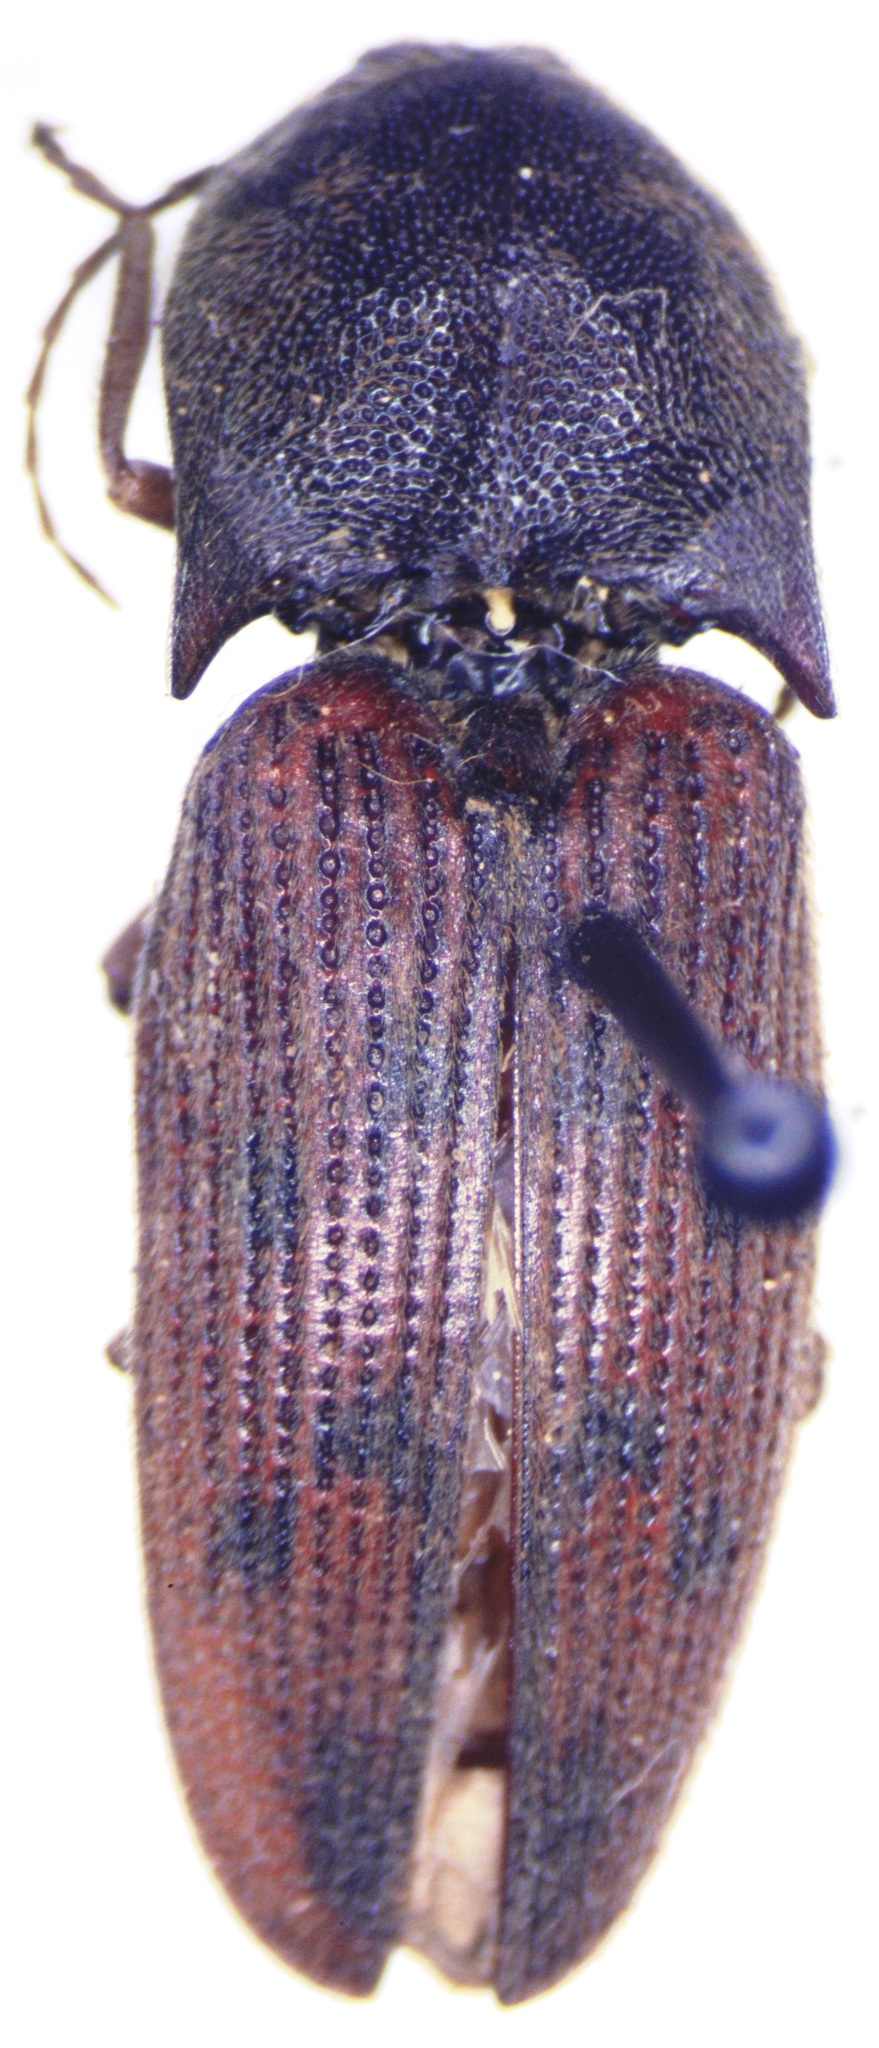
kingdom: Animalia
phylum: Arthropoda
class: Insecta
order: Coleoptera
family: Elateridae
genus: Monocrepidius
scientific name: Monocrepidius
